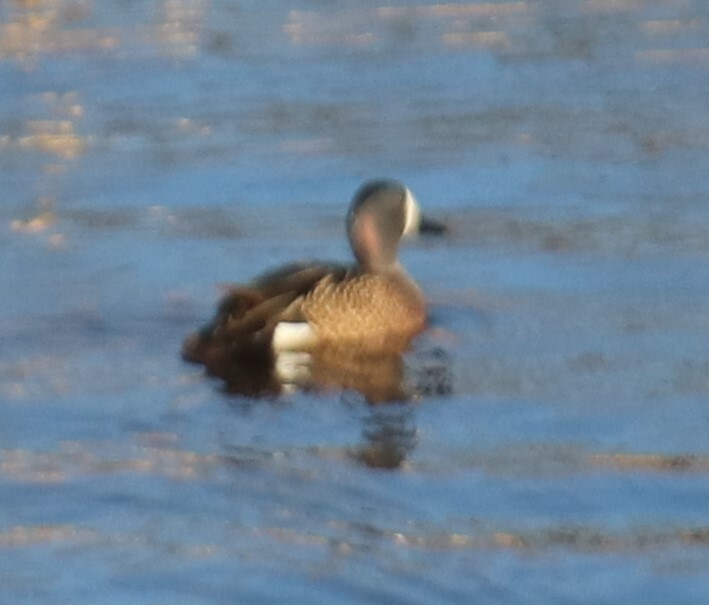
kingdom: Animalia
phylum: Chordata
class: Aves
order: Anseriformes
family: Anatidae
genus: Spatula
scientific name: Spatula discors
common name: Blue-winged teal
